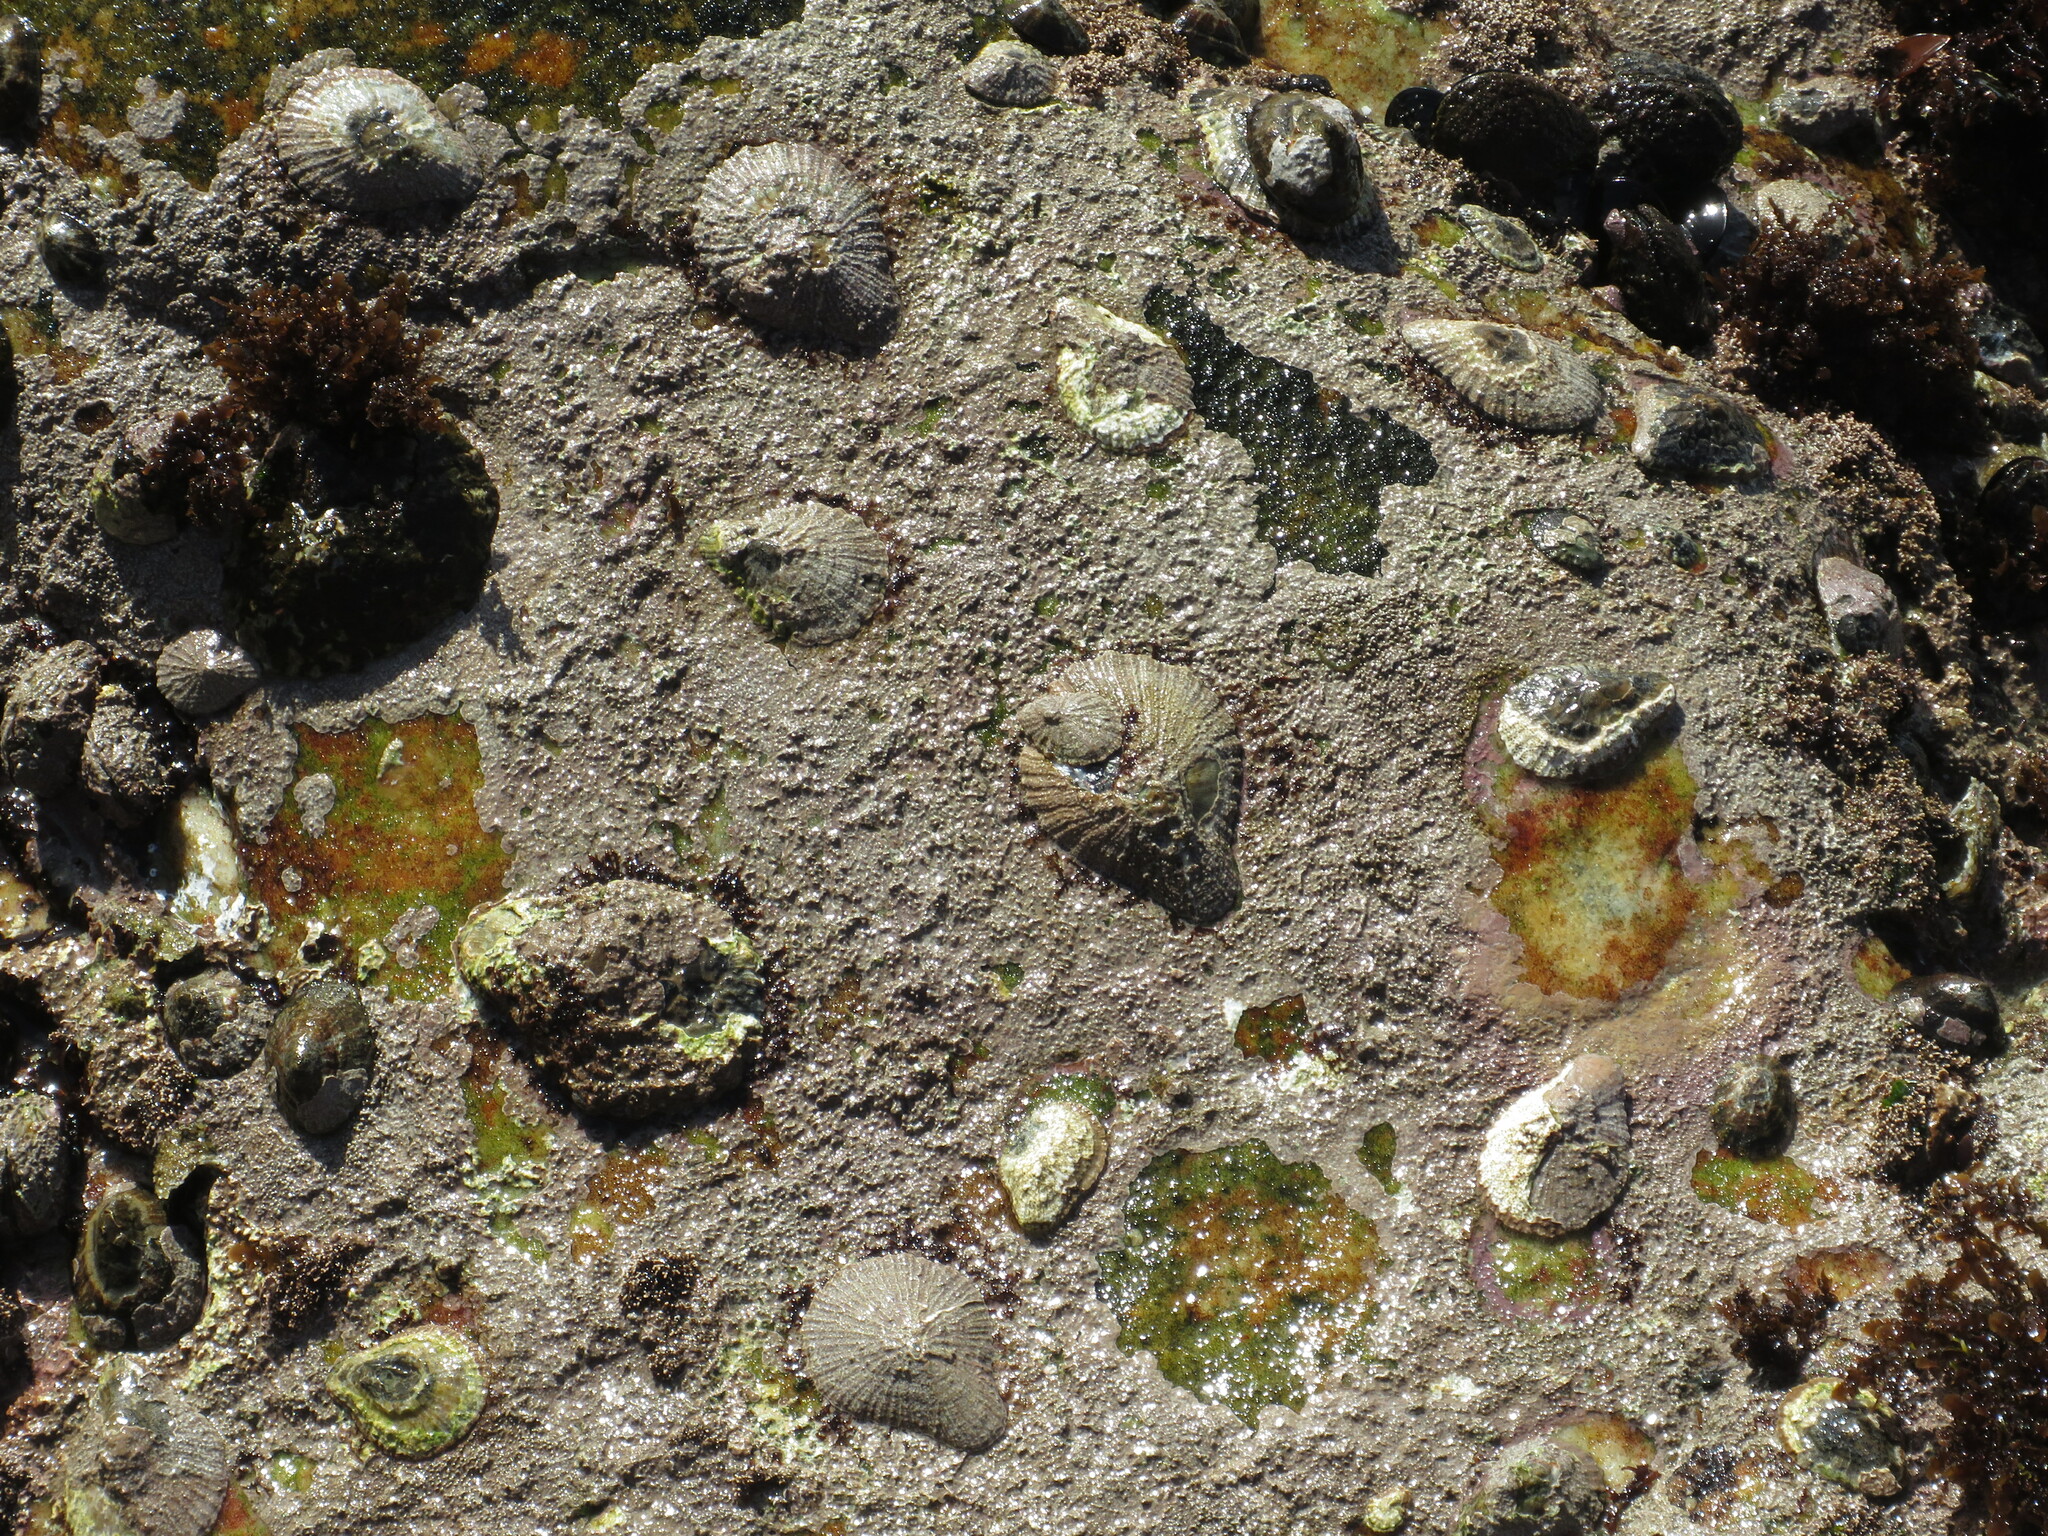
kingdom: Animalia
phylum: Mollusca
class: Gastropoda
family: Patellidae
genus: Scutellastra
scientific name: Scutellastra cochlear
